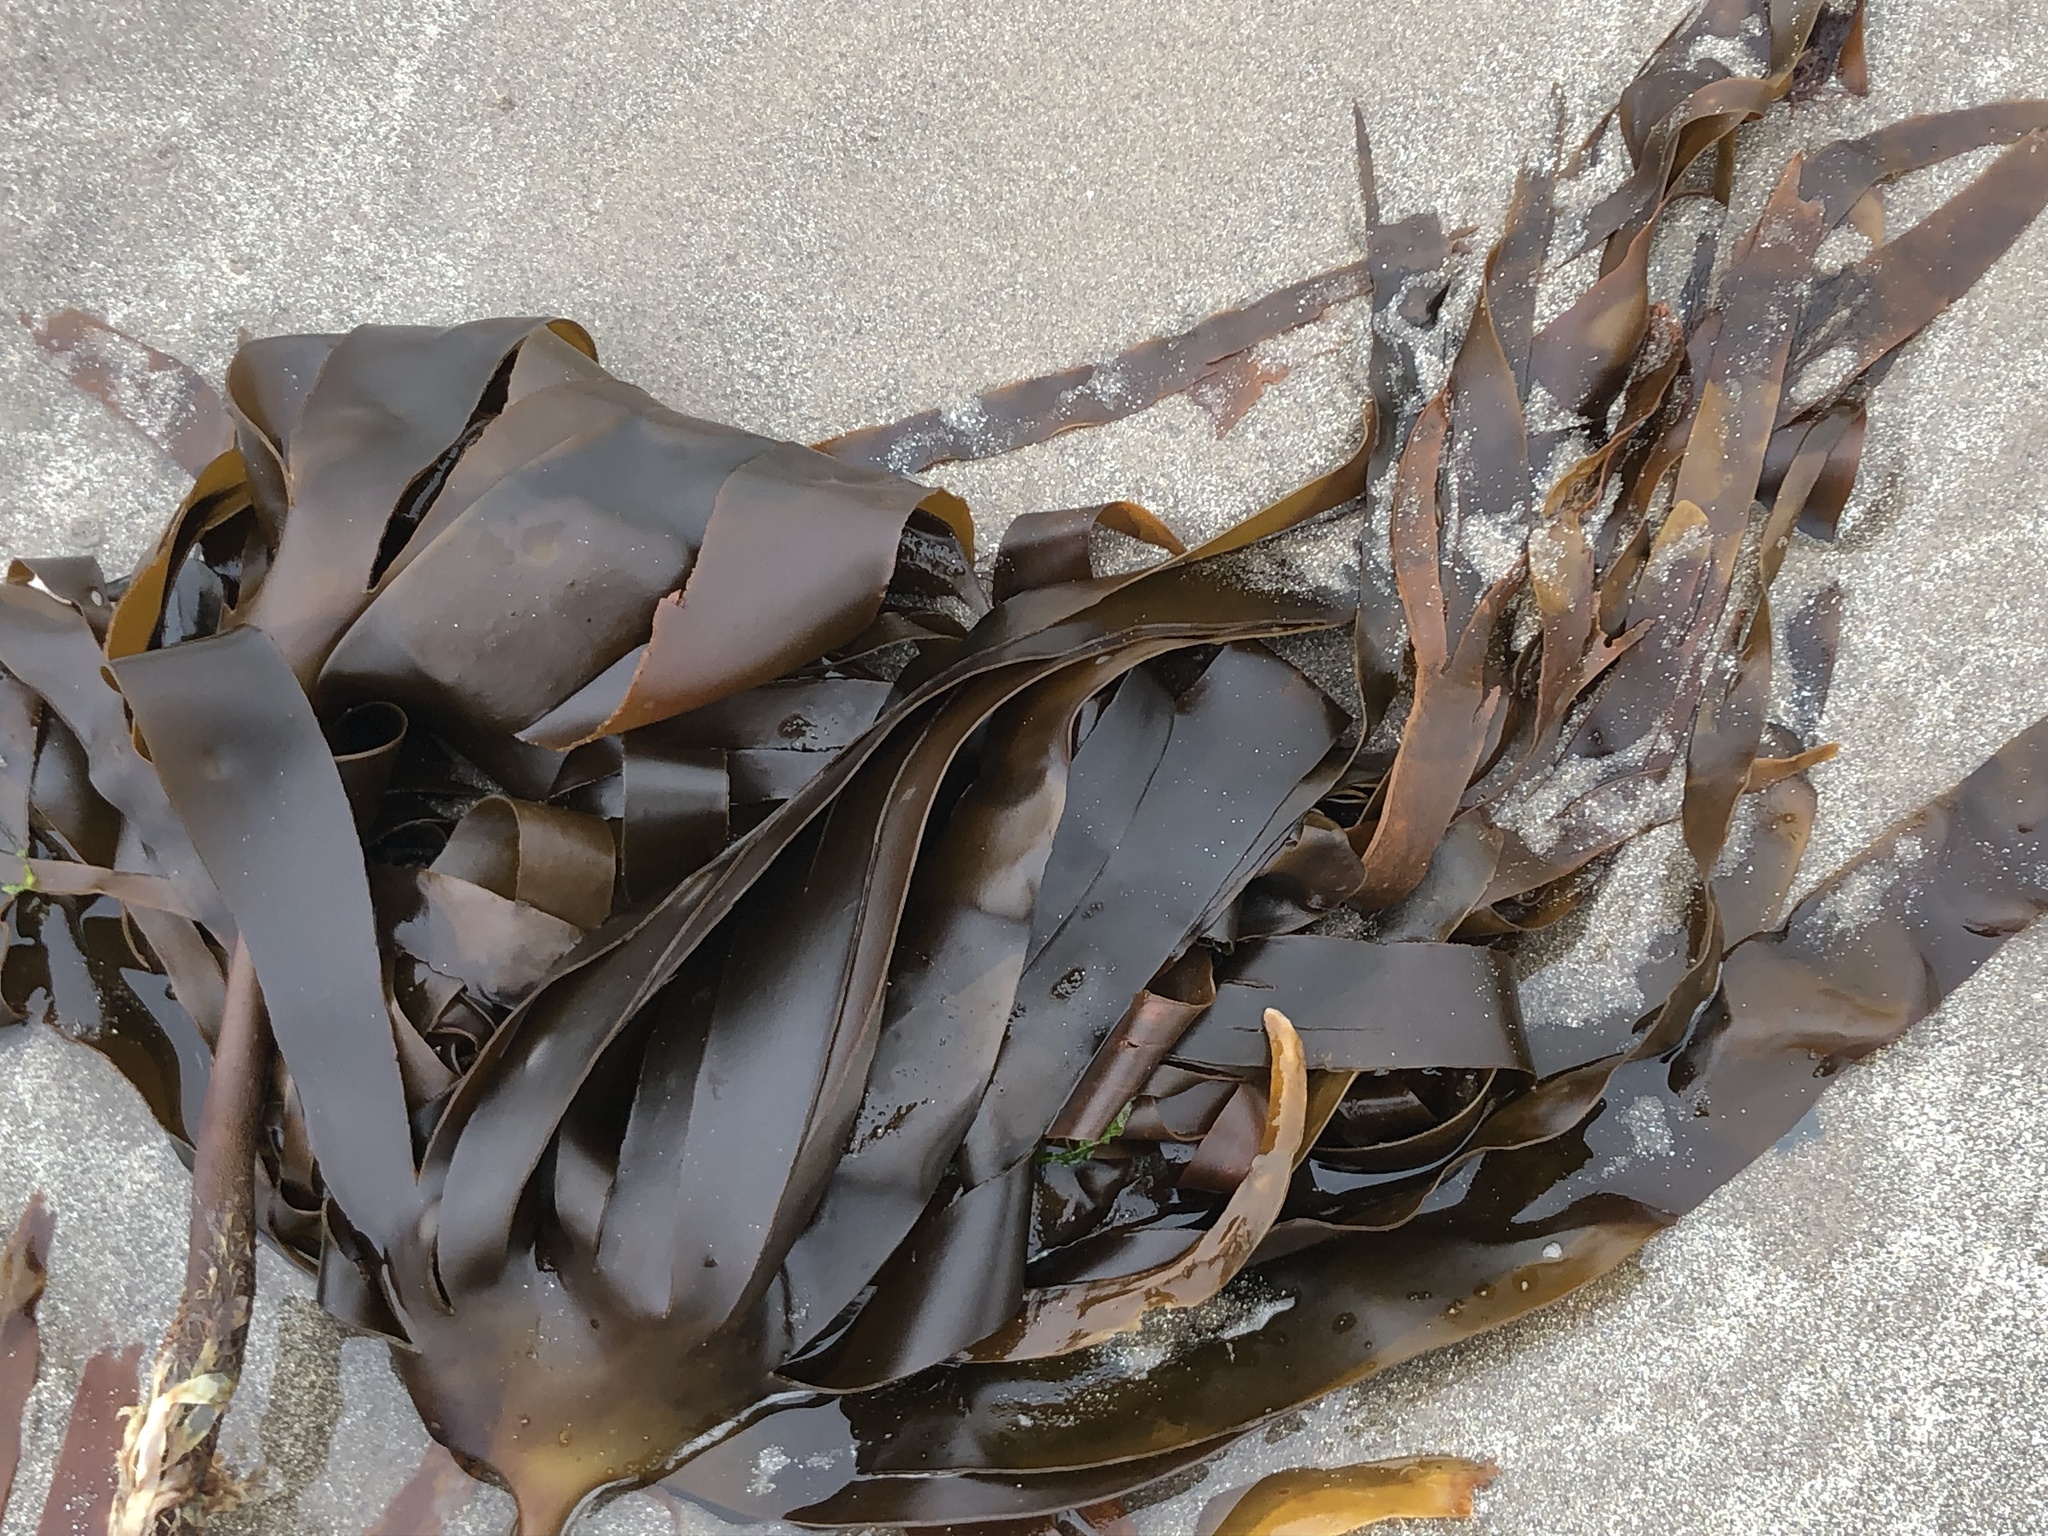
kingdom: Chromista
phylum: Ochrophyta
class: Phaeophyceae
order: Laminariales
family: Laminariaceae
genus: Laminaria
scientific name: Laminaria digitata
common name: Oarweed
